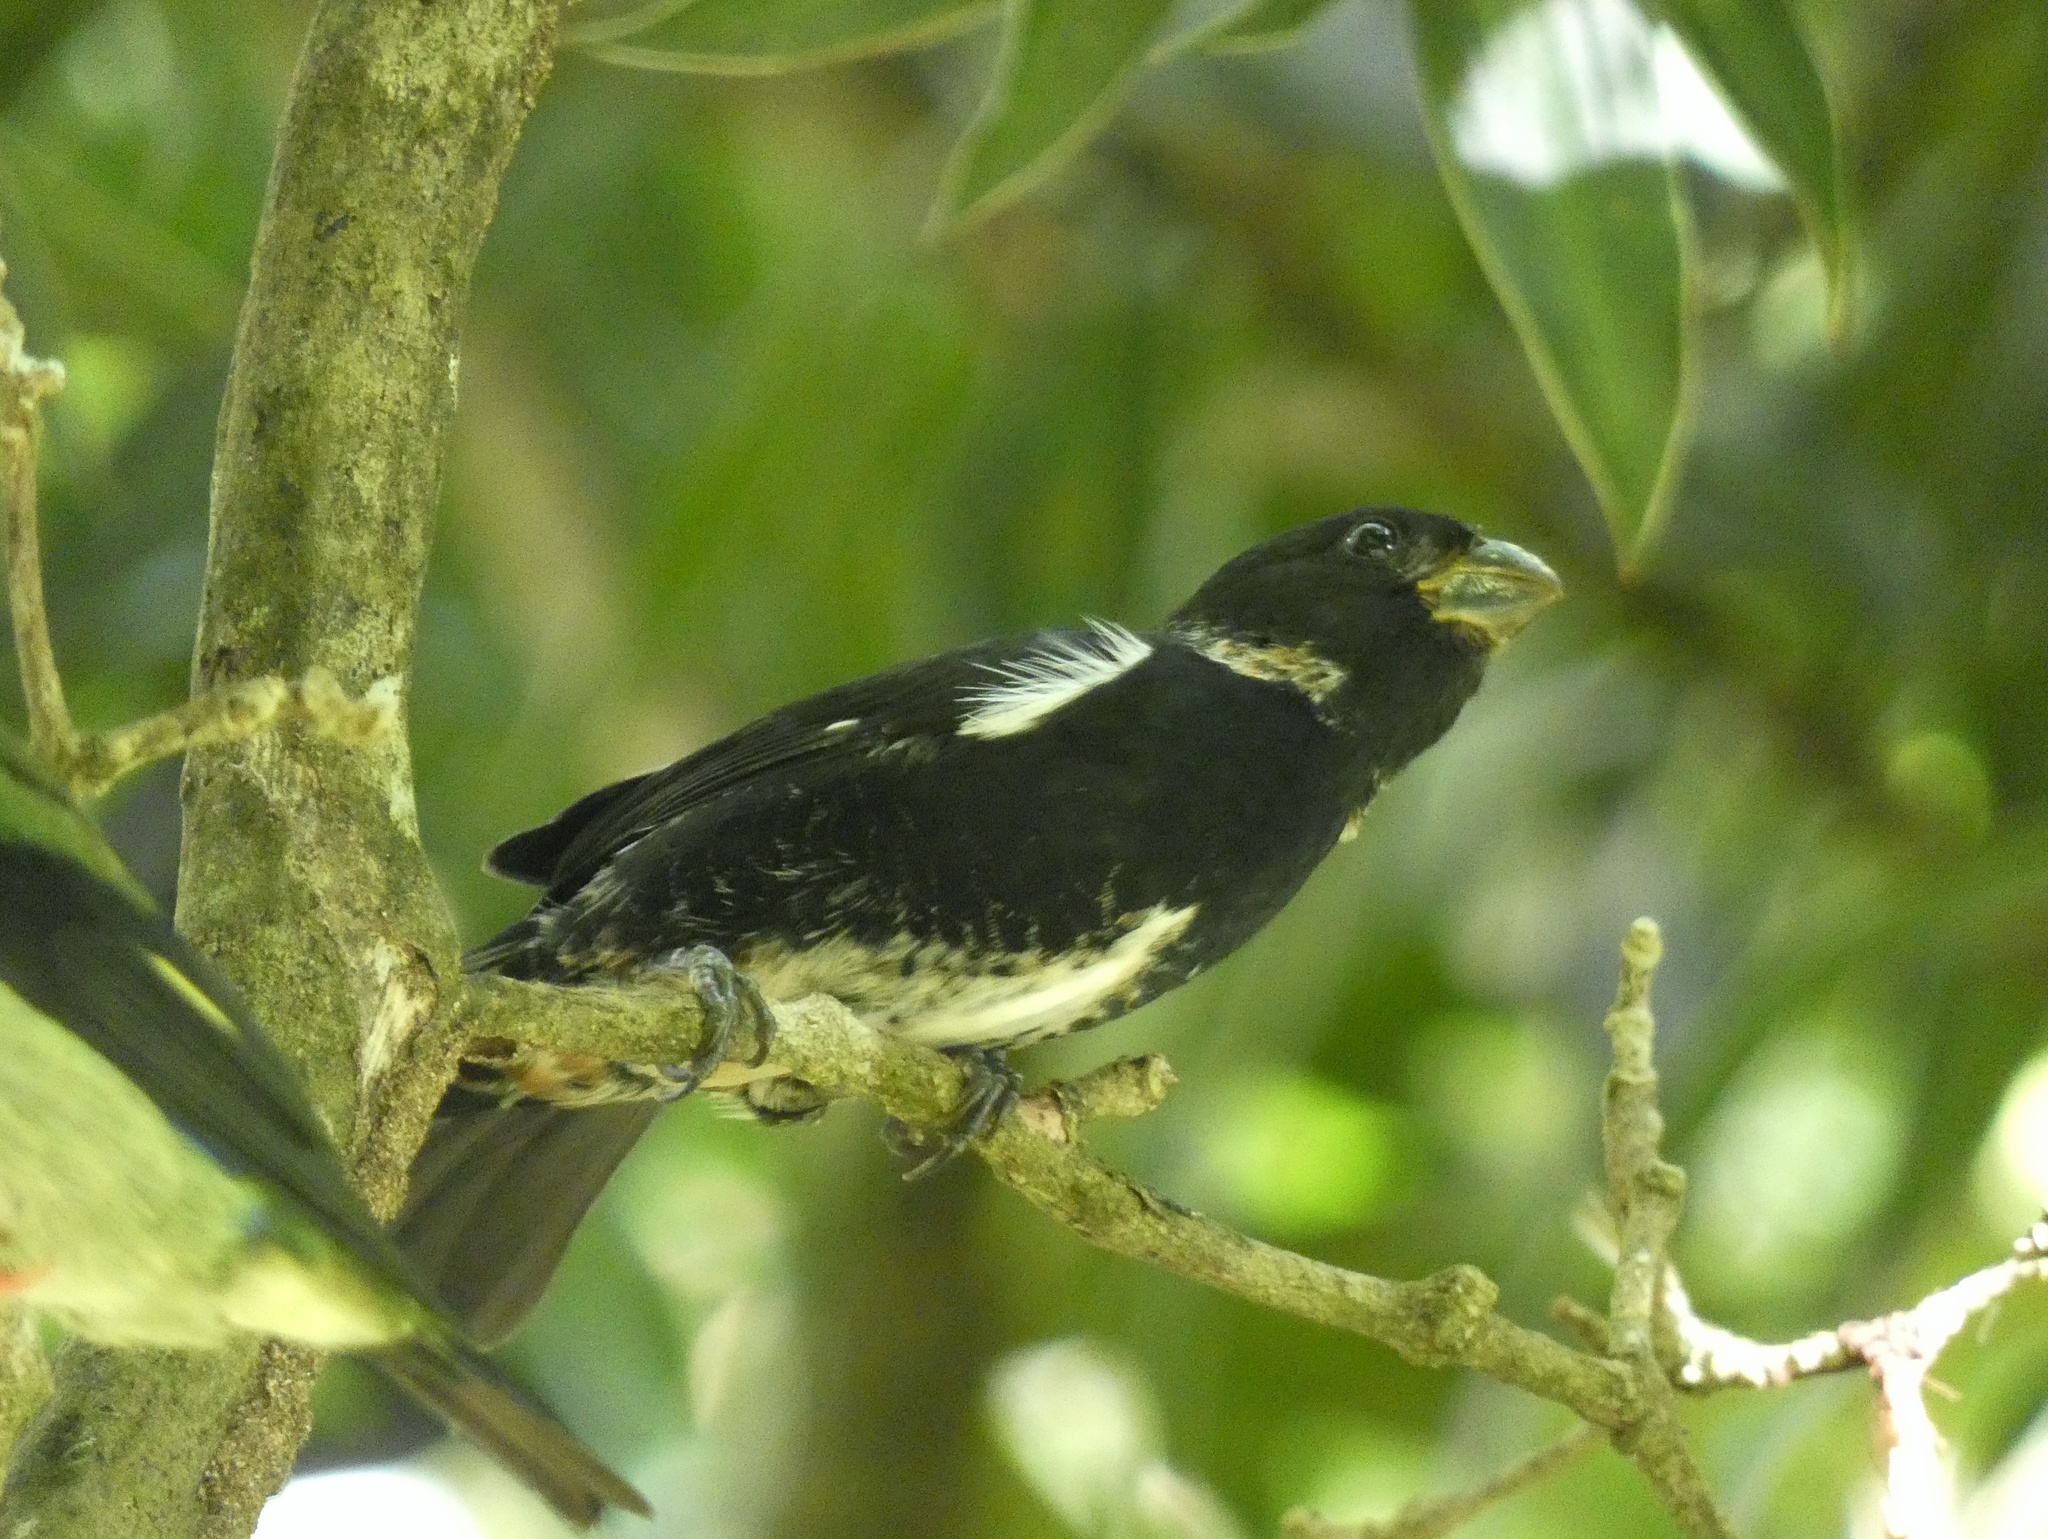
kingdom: Animalia
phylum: Chordata
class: Aves
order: Passeriformes
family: Thraupidae
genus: Sporophila
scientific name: Sporophila corvina
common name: Variable seedeater
